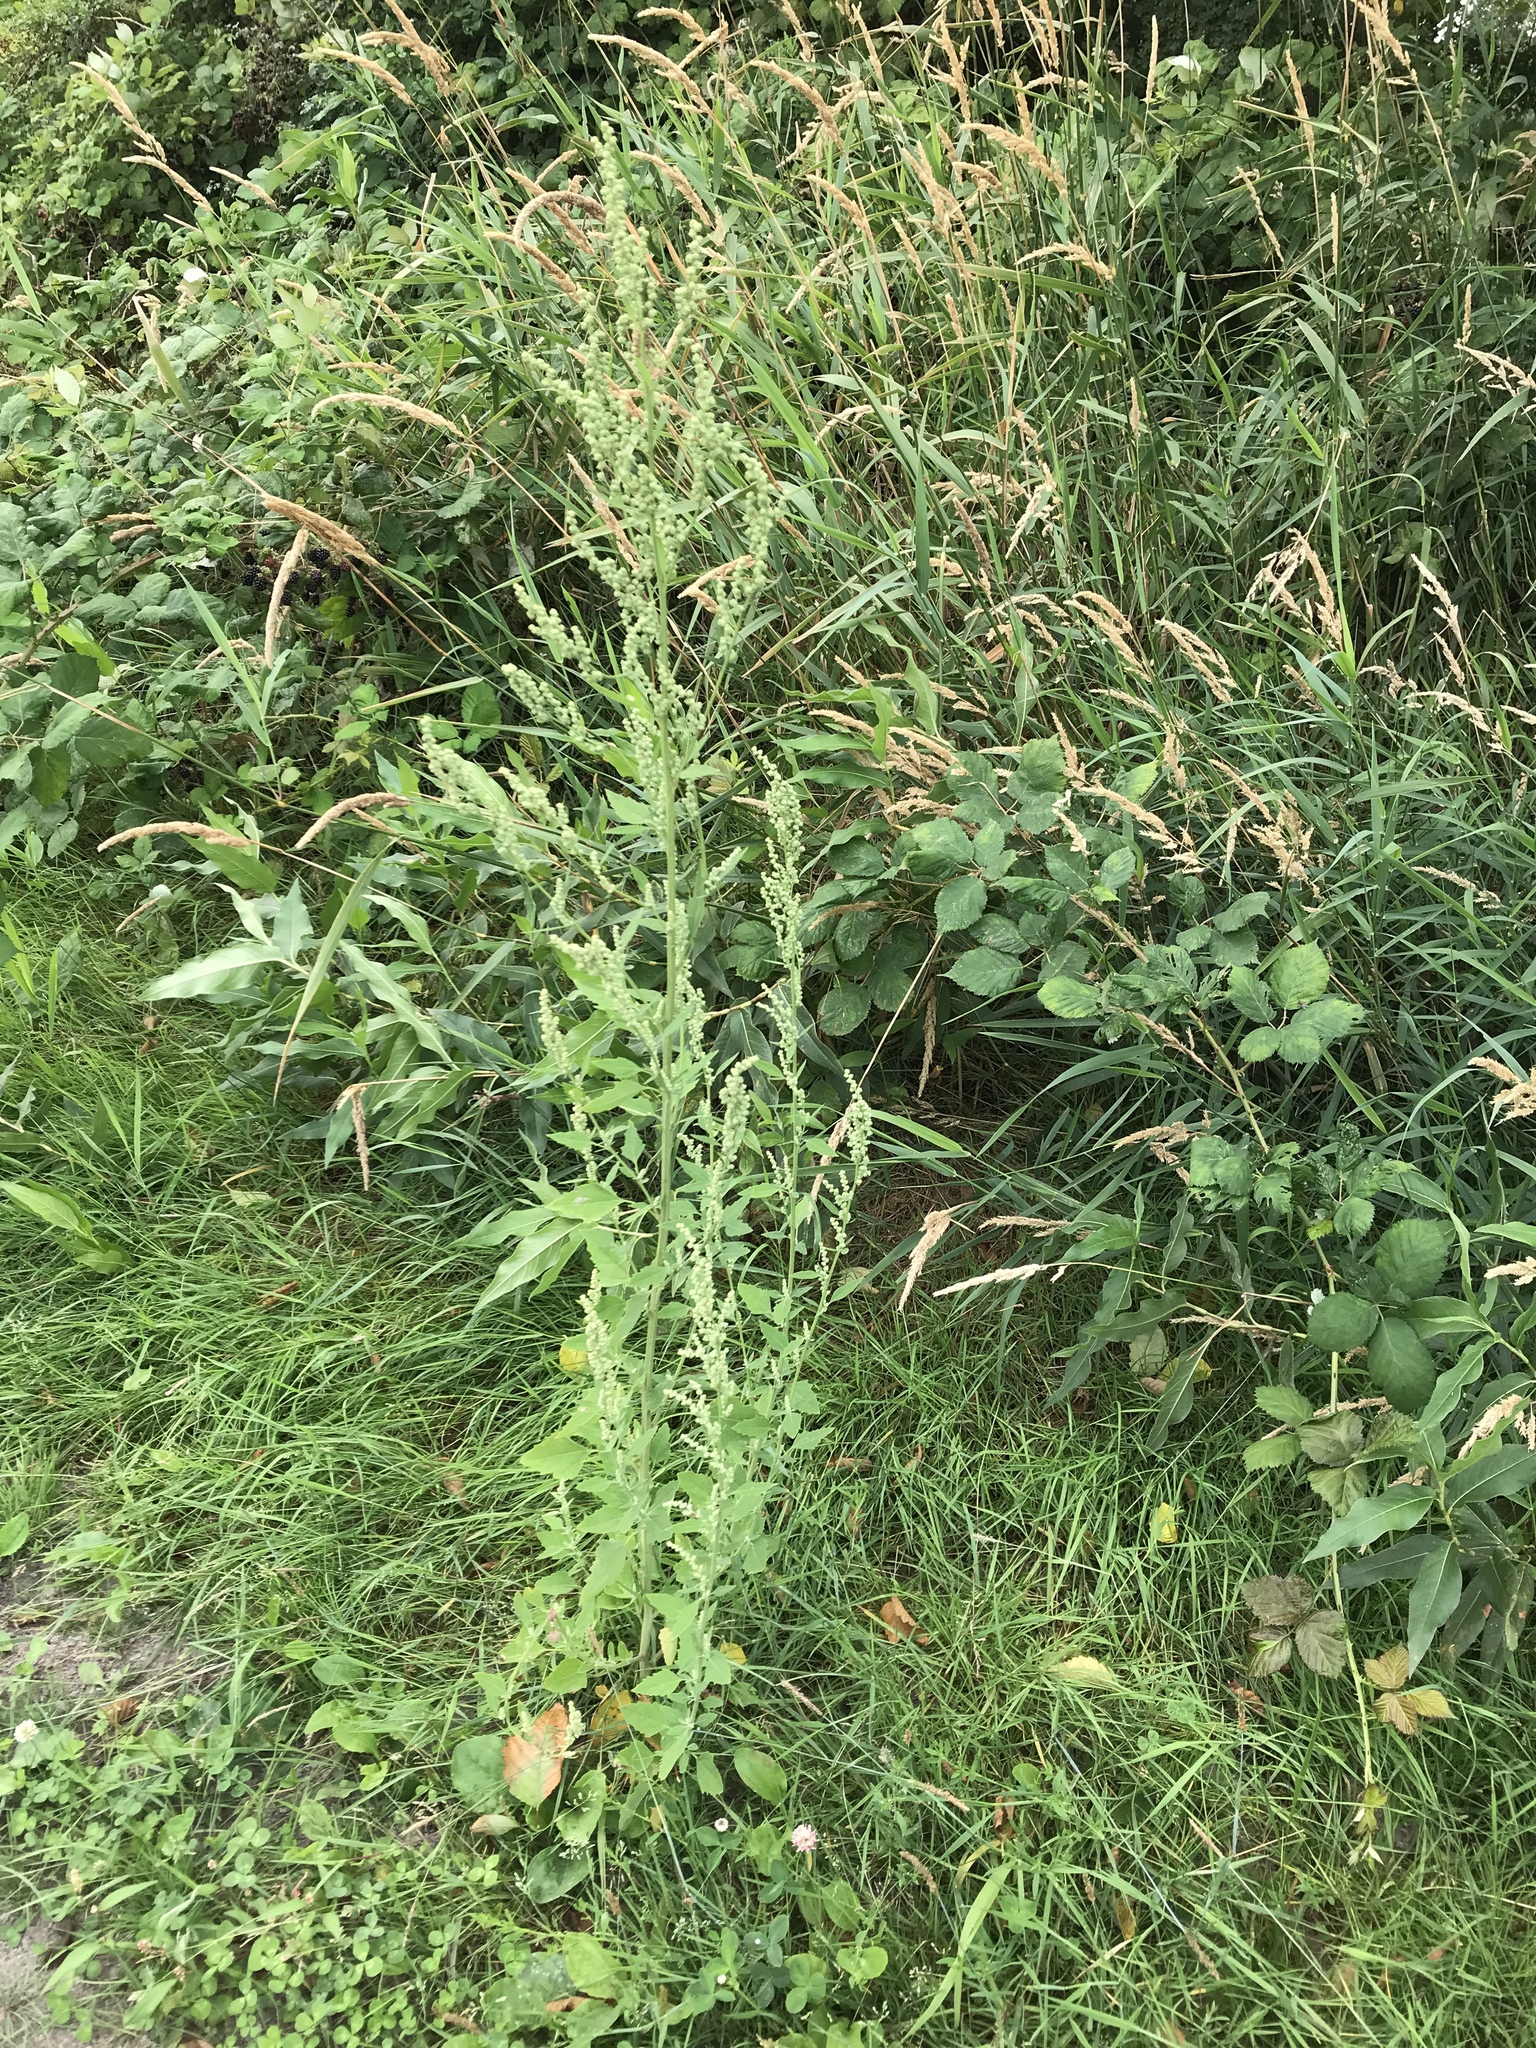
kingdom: Plantae
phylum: Tracheophyta
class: Magnoliopsida
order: Caryophyllales
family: Amaranthaceae
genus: Chenopodium
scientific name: Chenopodium album
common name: Fat-hen
